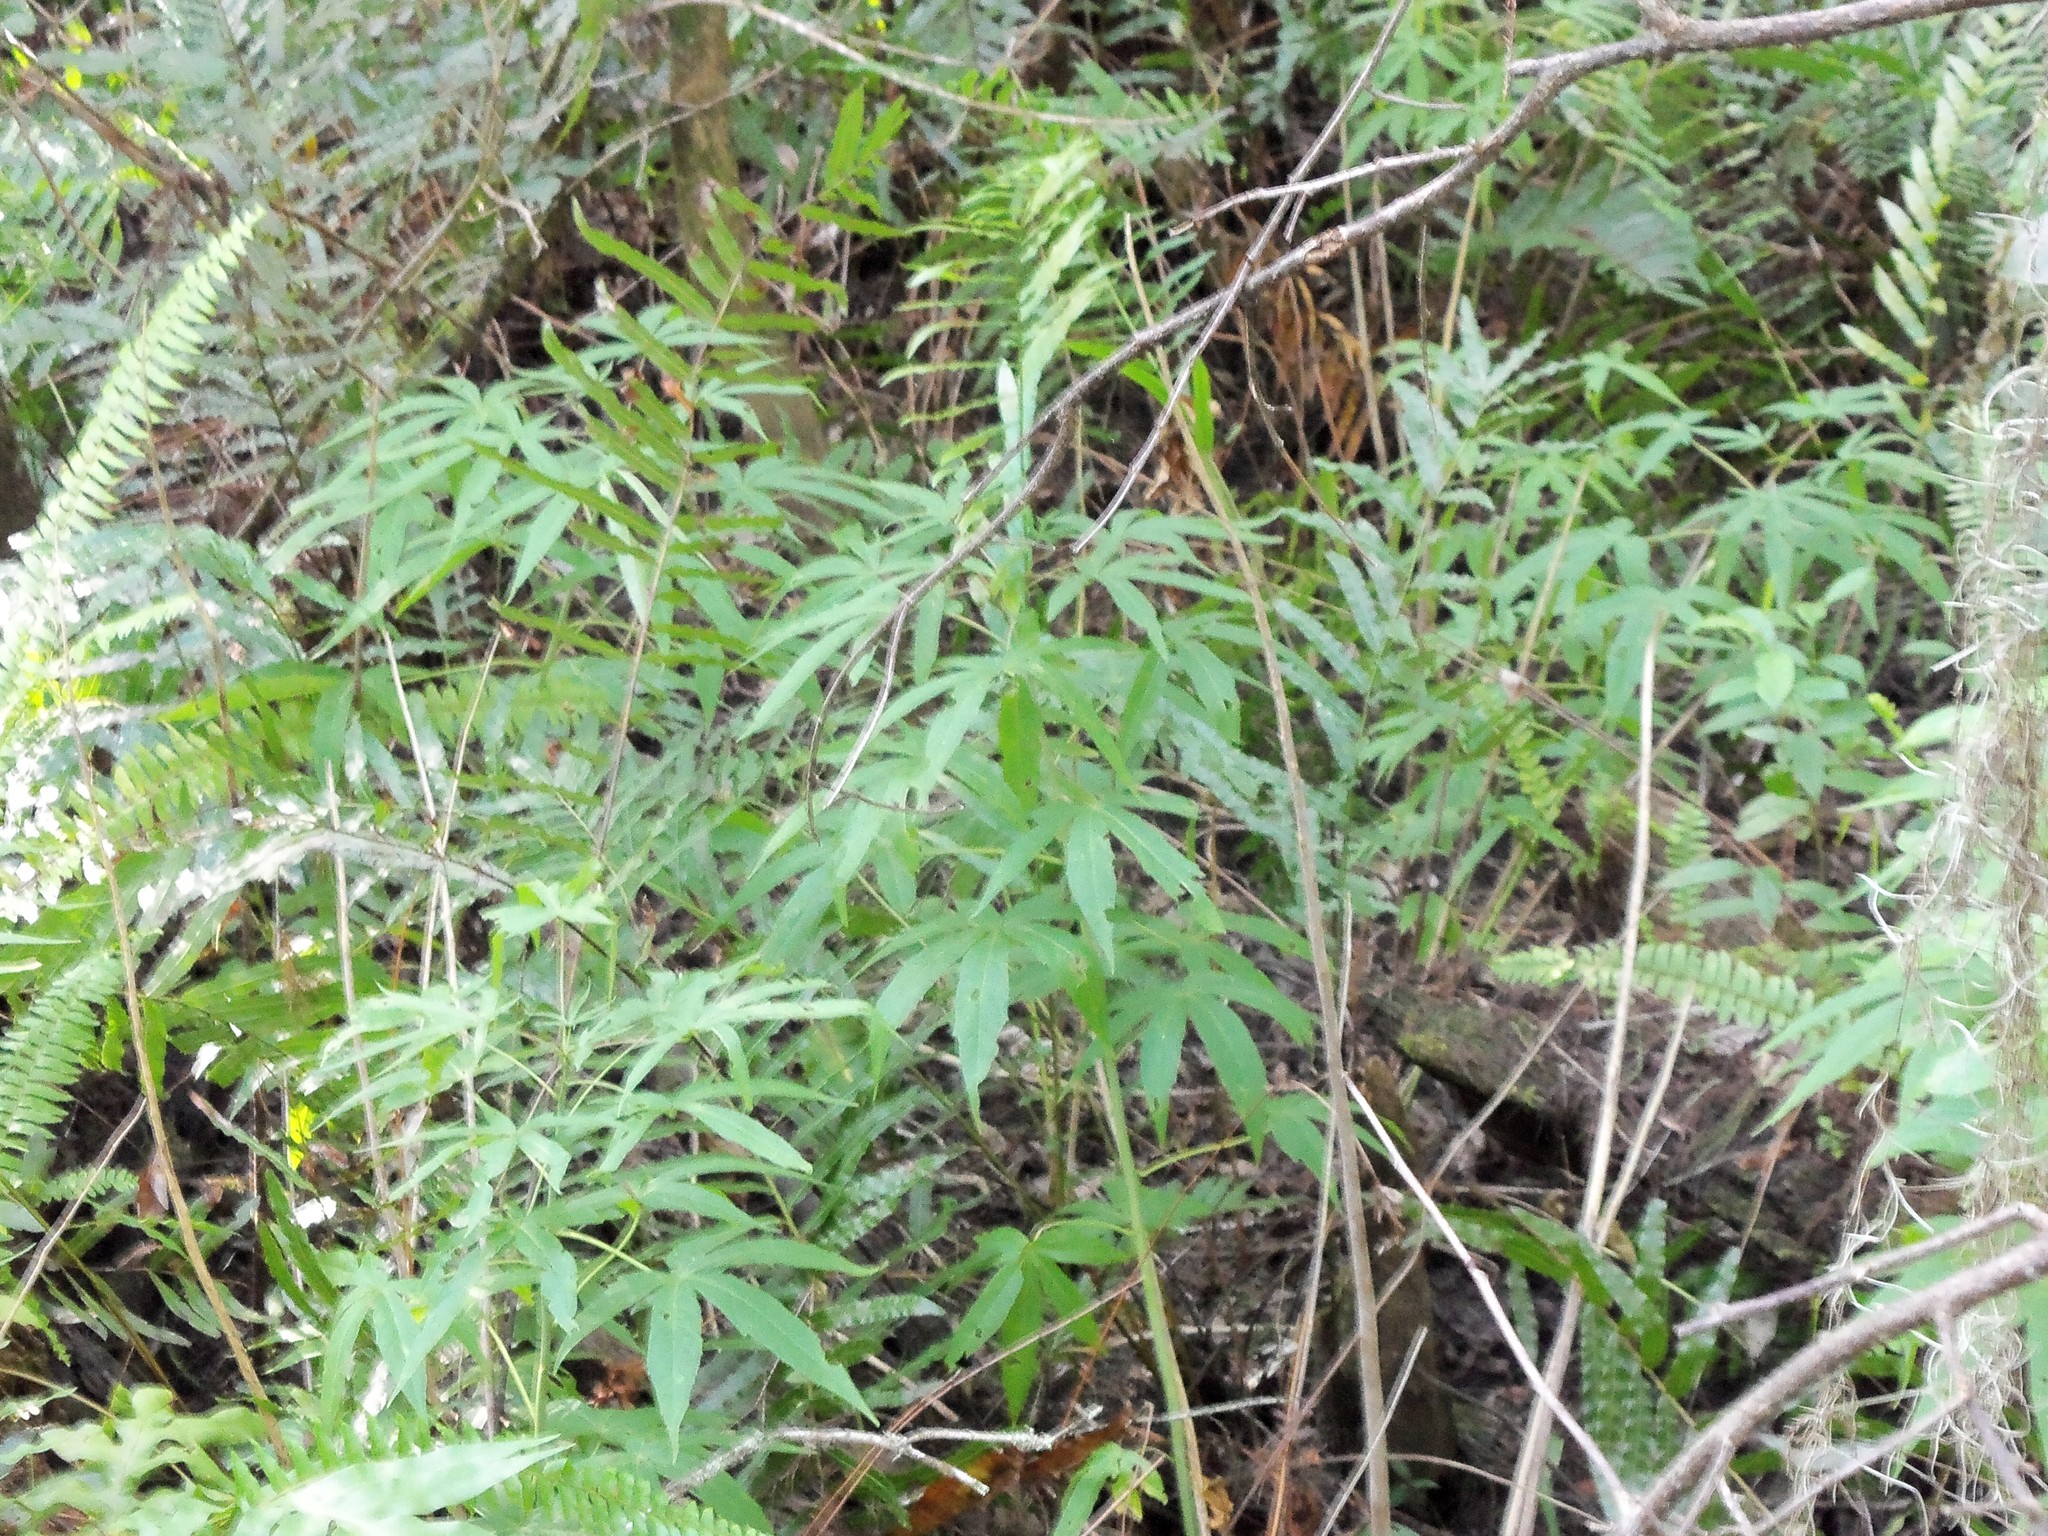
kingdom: Plantae
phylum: Tracheophyta
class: Magnoliopsida
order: Malvales
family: Malvaceae
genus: Hibiscus
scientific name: Hibiscus coccineus
